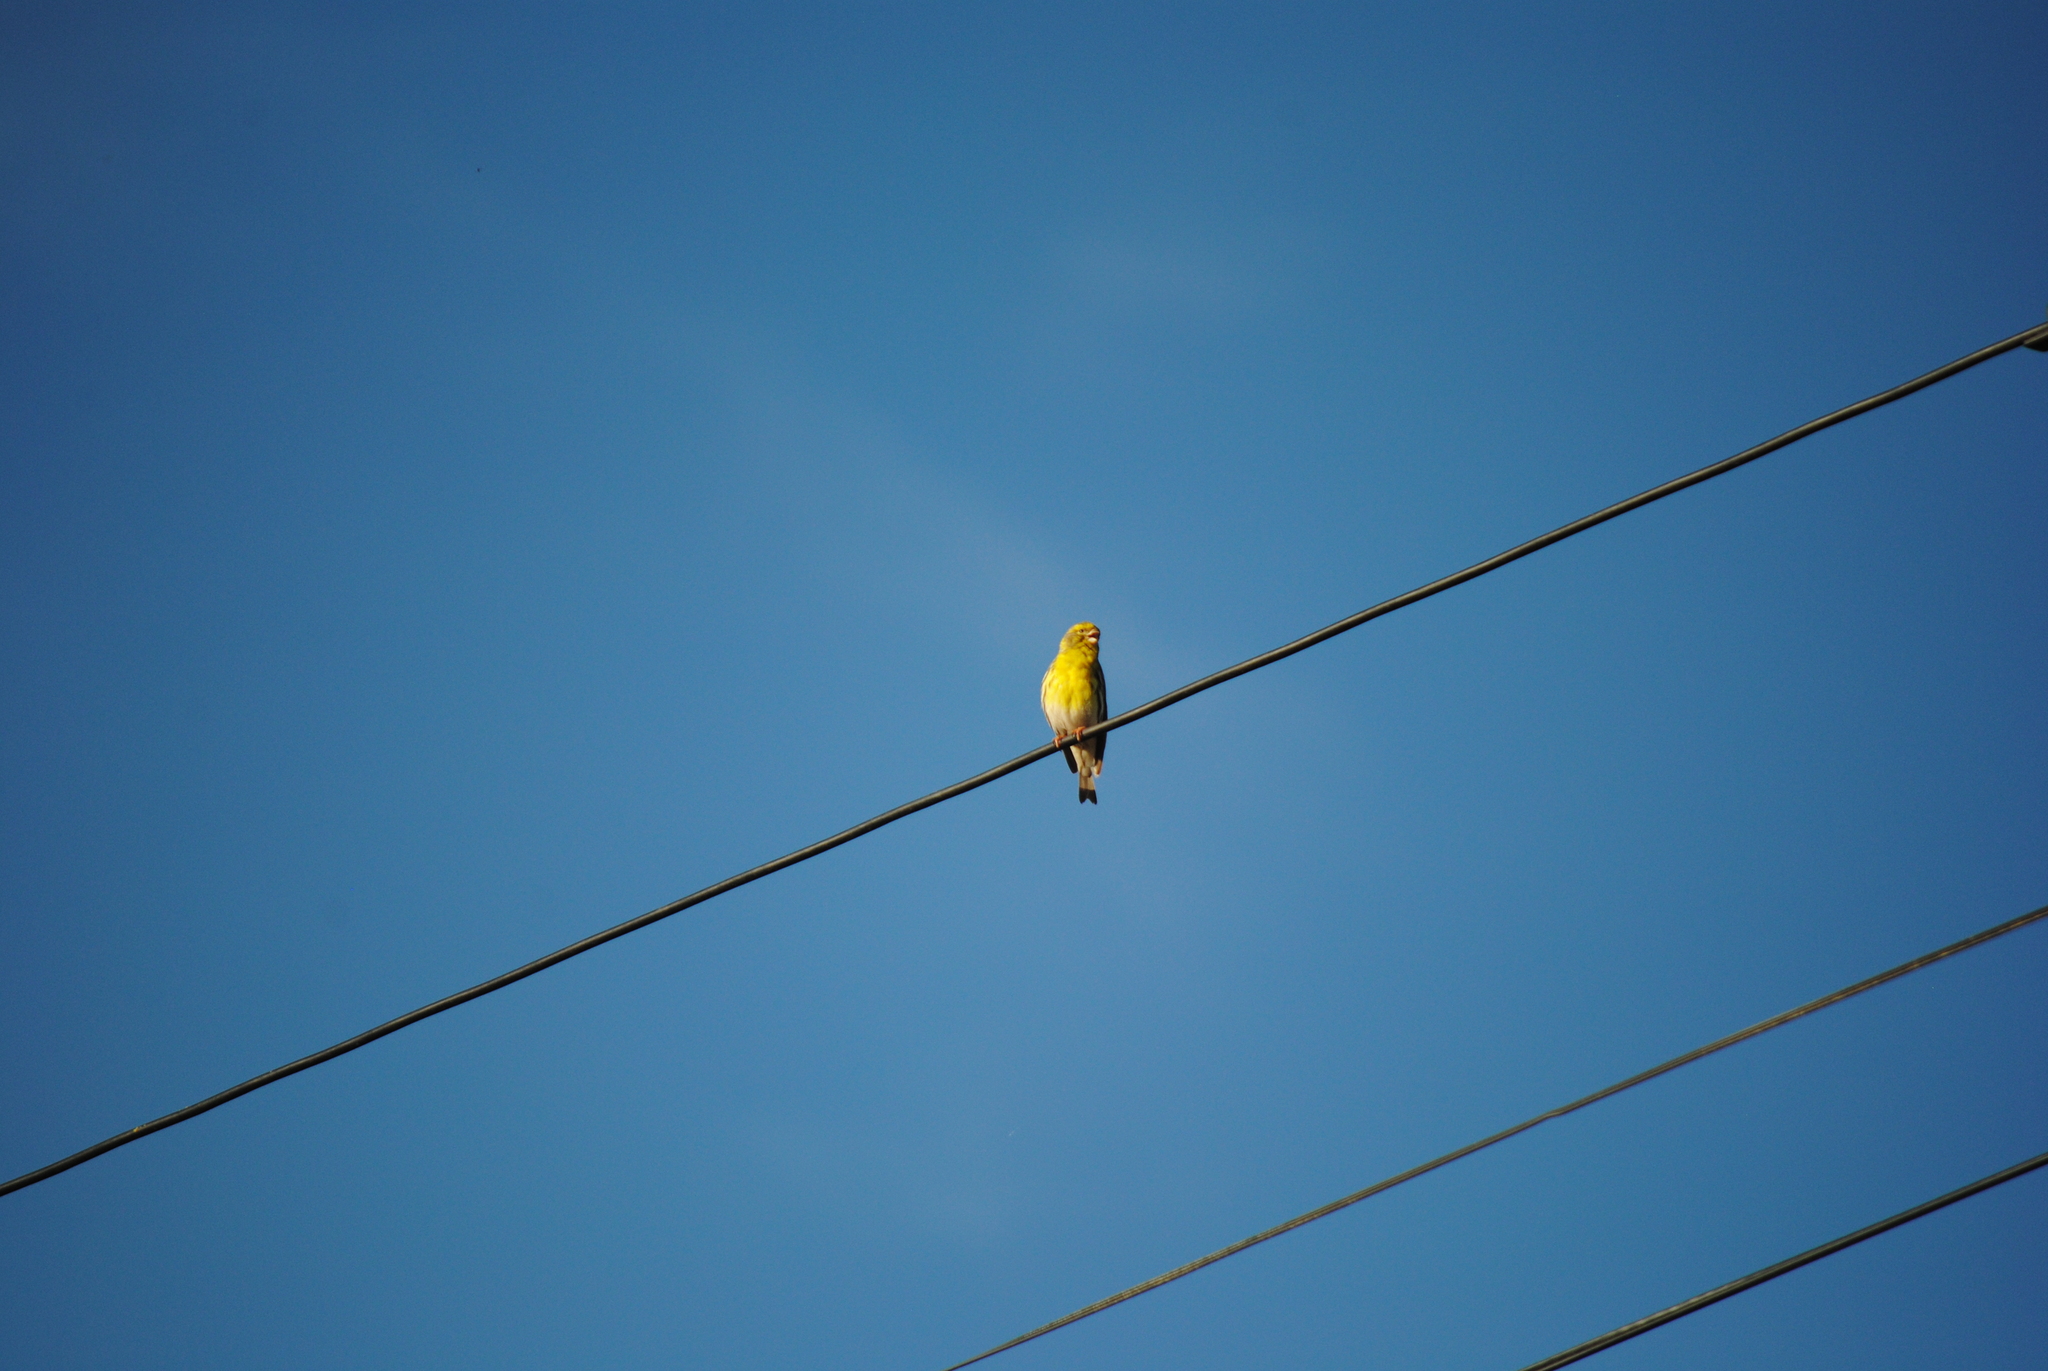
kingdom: Animalia
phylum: Chordata
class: Aves
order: Passeriformes
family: Fringillidae
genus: Serinus
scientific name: Serinus serinus
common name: European serin
